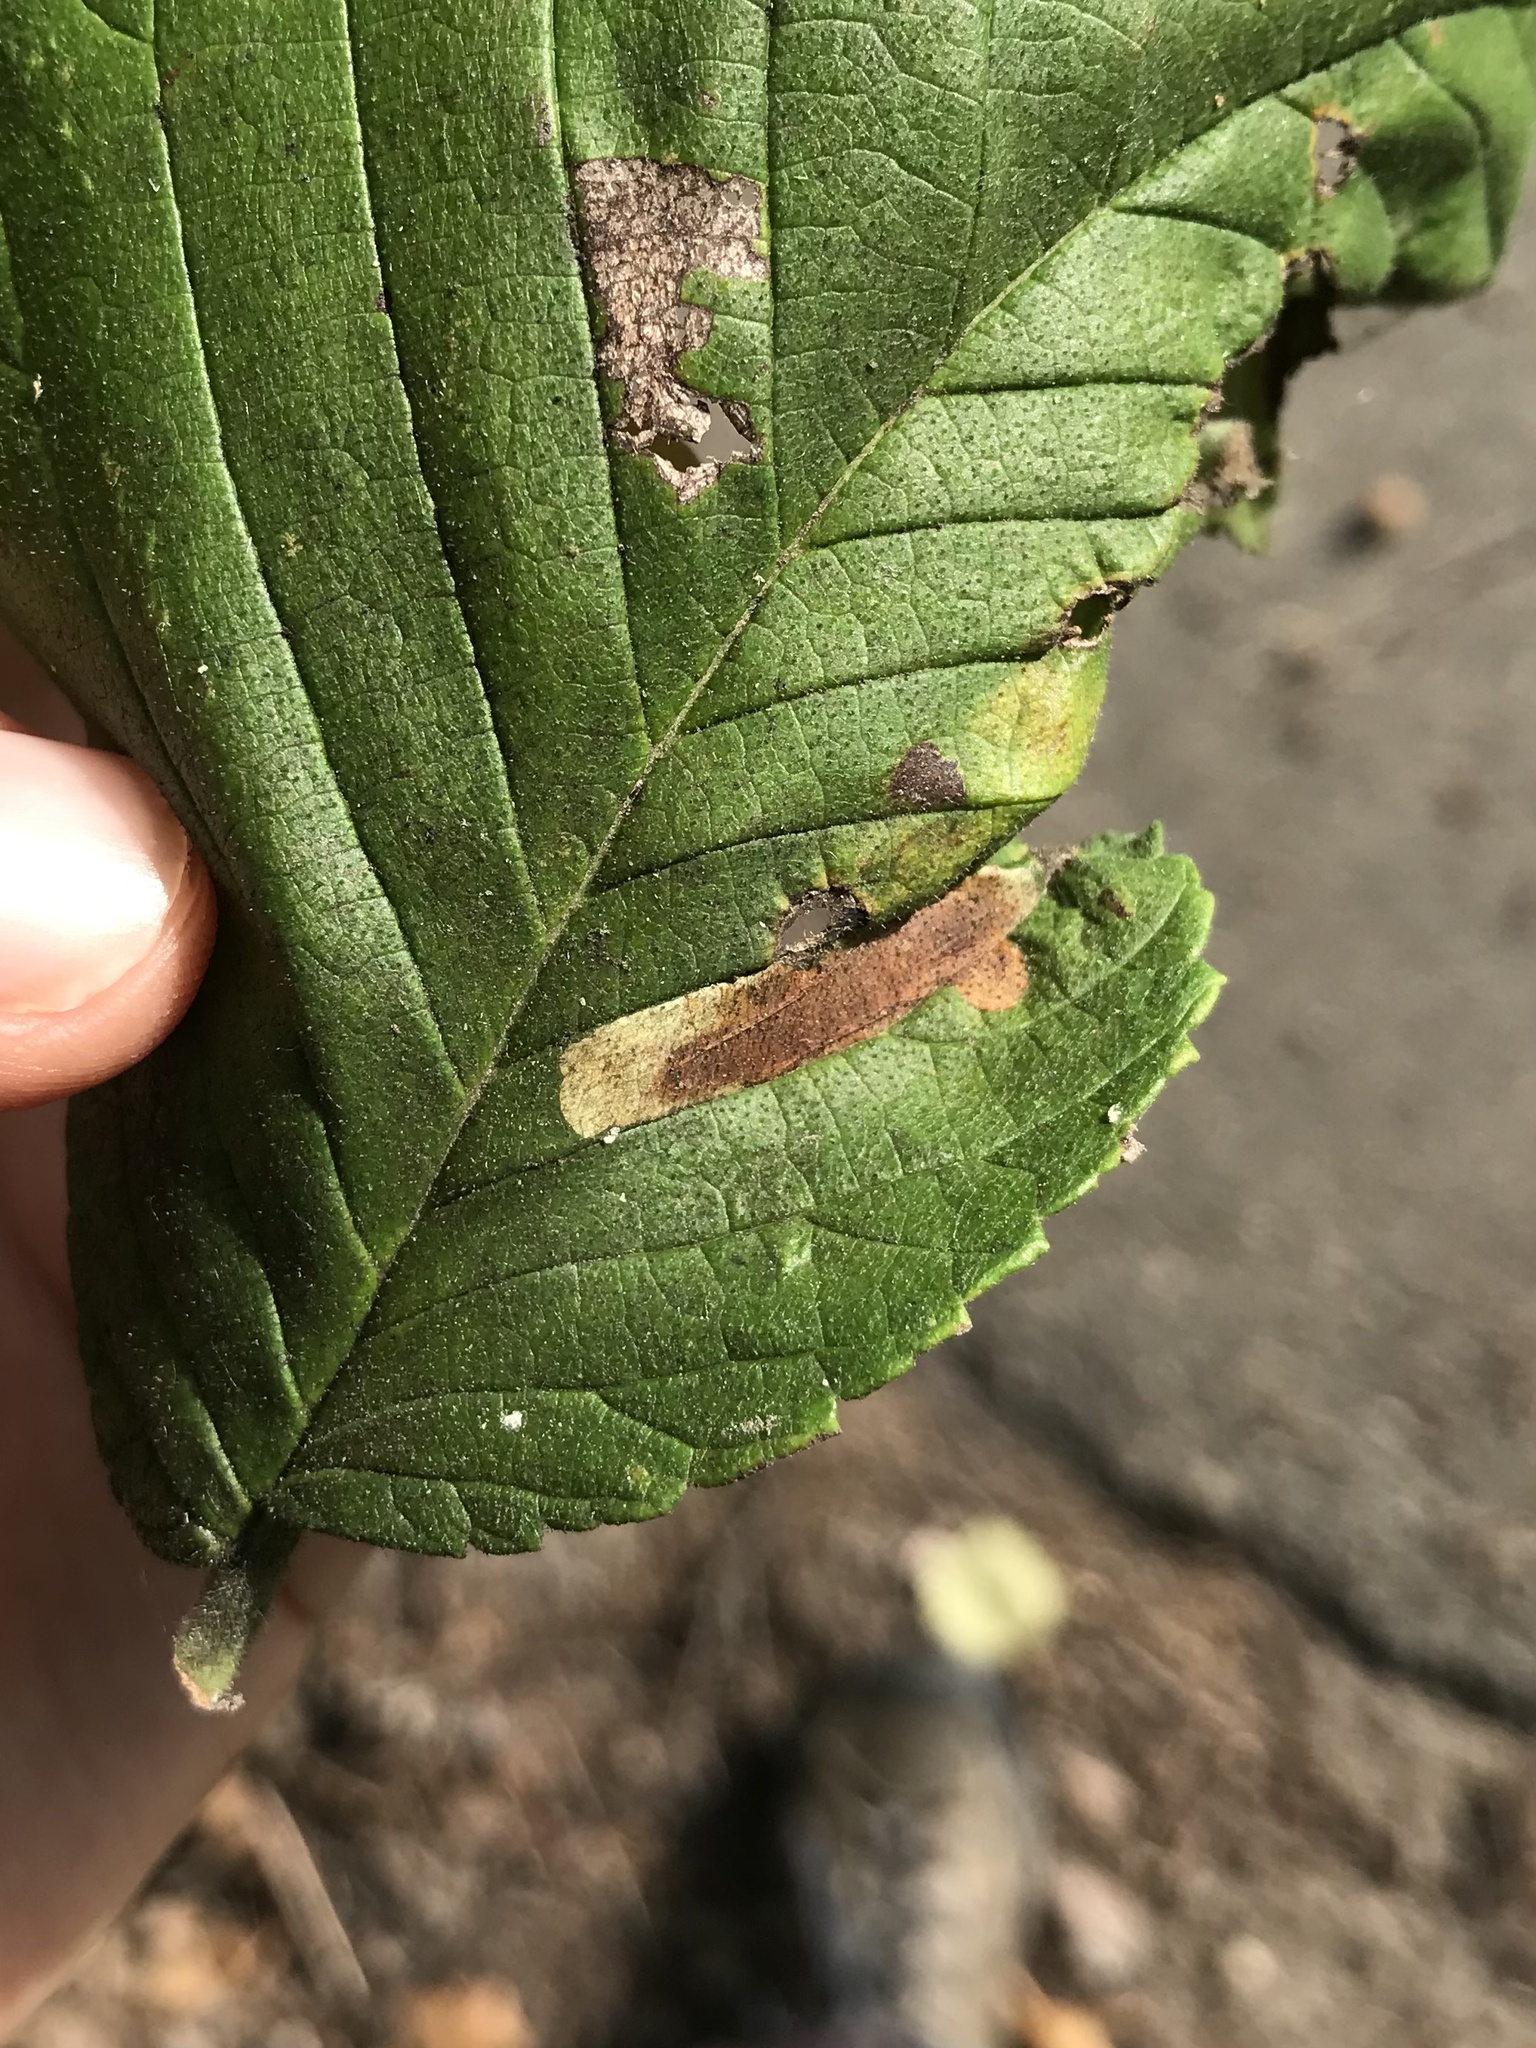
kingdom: Animalia
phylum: Arthropoda
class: Insecta
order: Lepidoptera
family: Gracillariidae
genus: Cameraria
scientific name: Cameraria ulmella
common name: Elm leafminer
